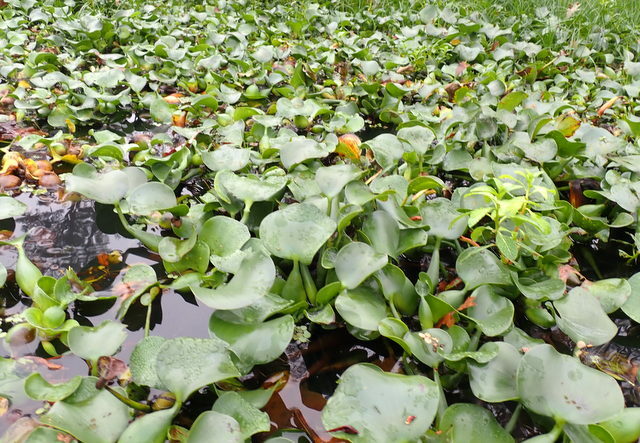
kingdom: Plantae
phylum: Tracheophyta
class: Liliopsida
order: Commelinales
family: Pontederiaceae
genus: Pontederia
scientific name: Pontederia crassipes
